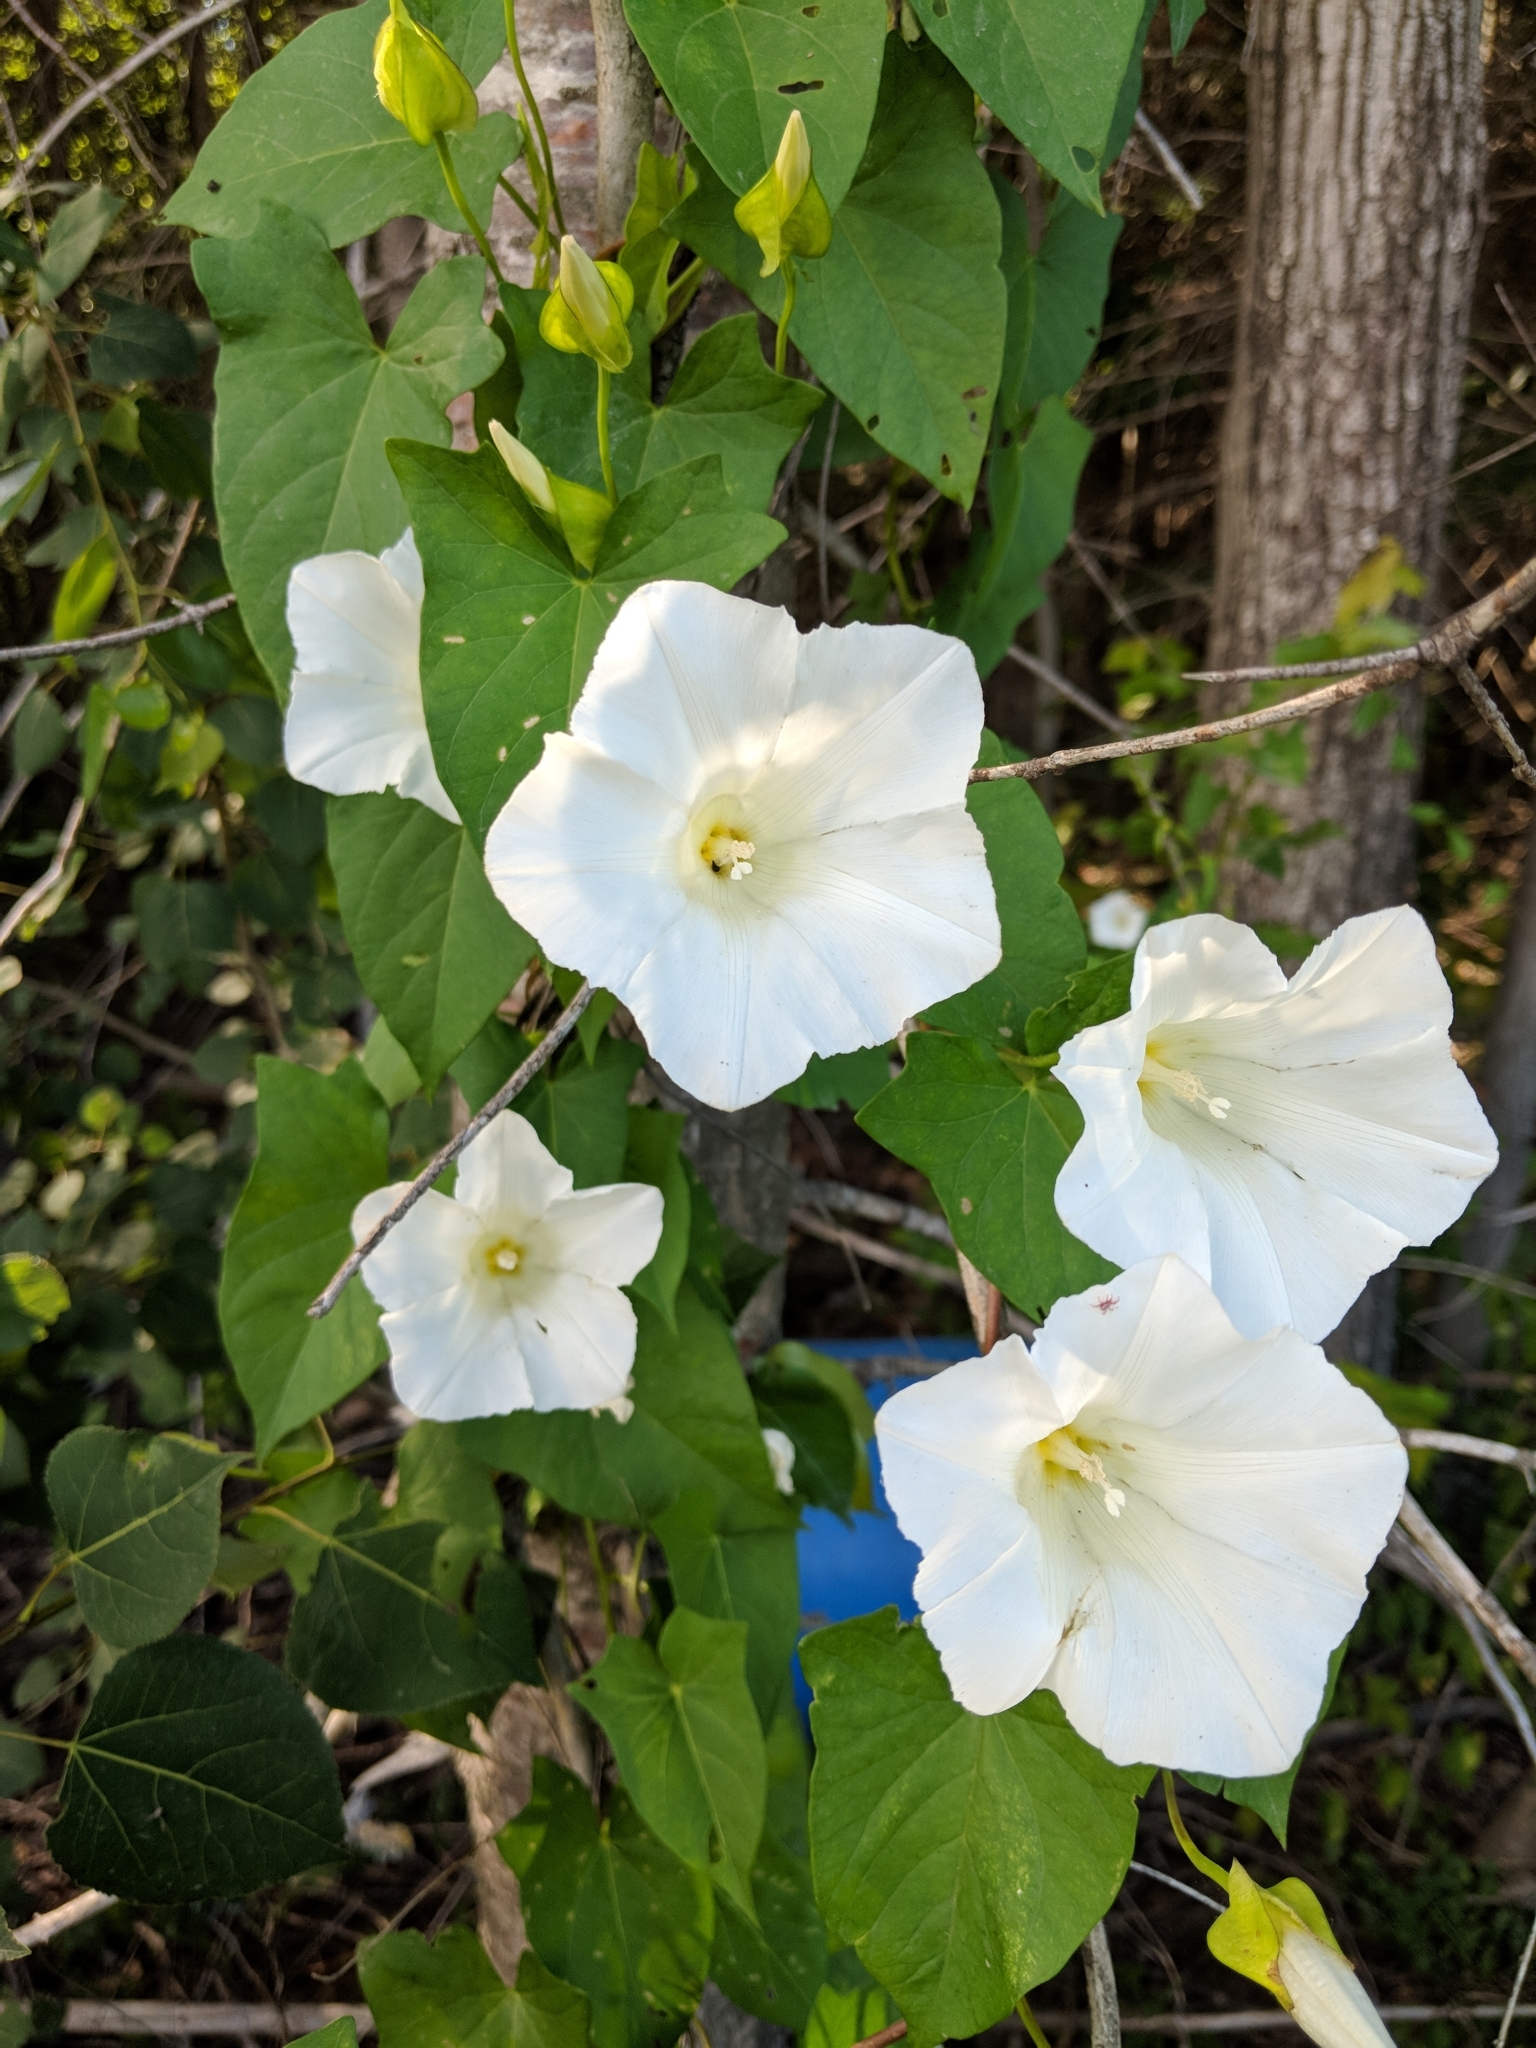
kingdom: Plantae
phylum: Tracheophyta
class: Magnoliopsida
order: Solanales
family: Convolvulaceae
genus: Calystegia
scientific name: Calystegia sepium
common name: Hedge bindweed
